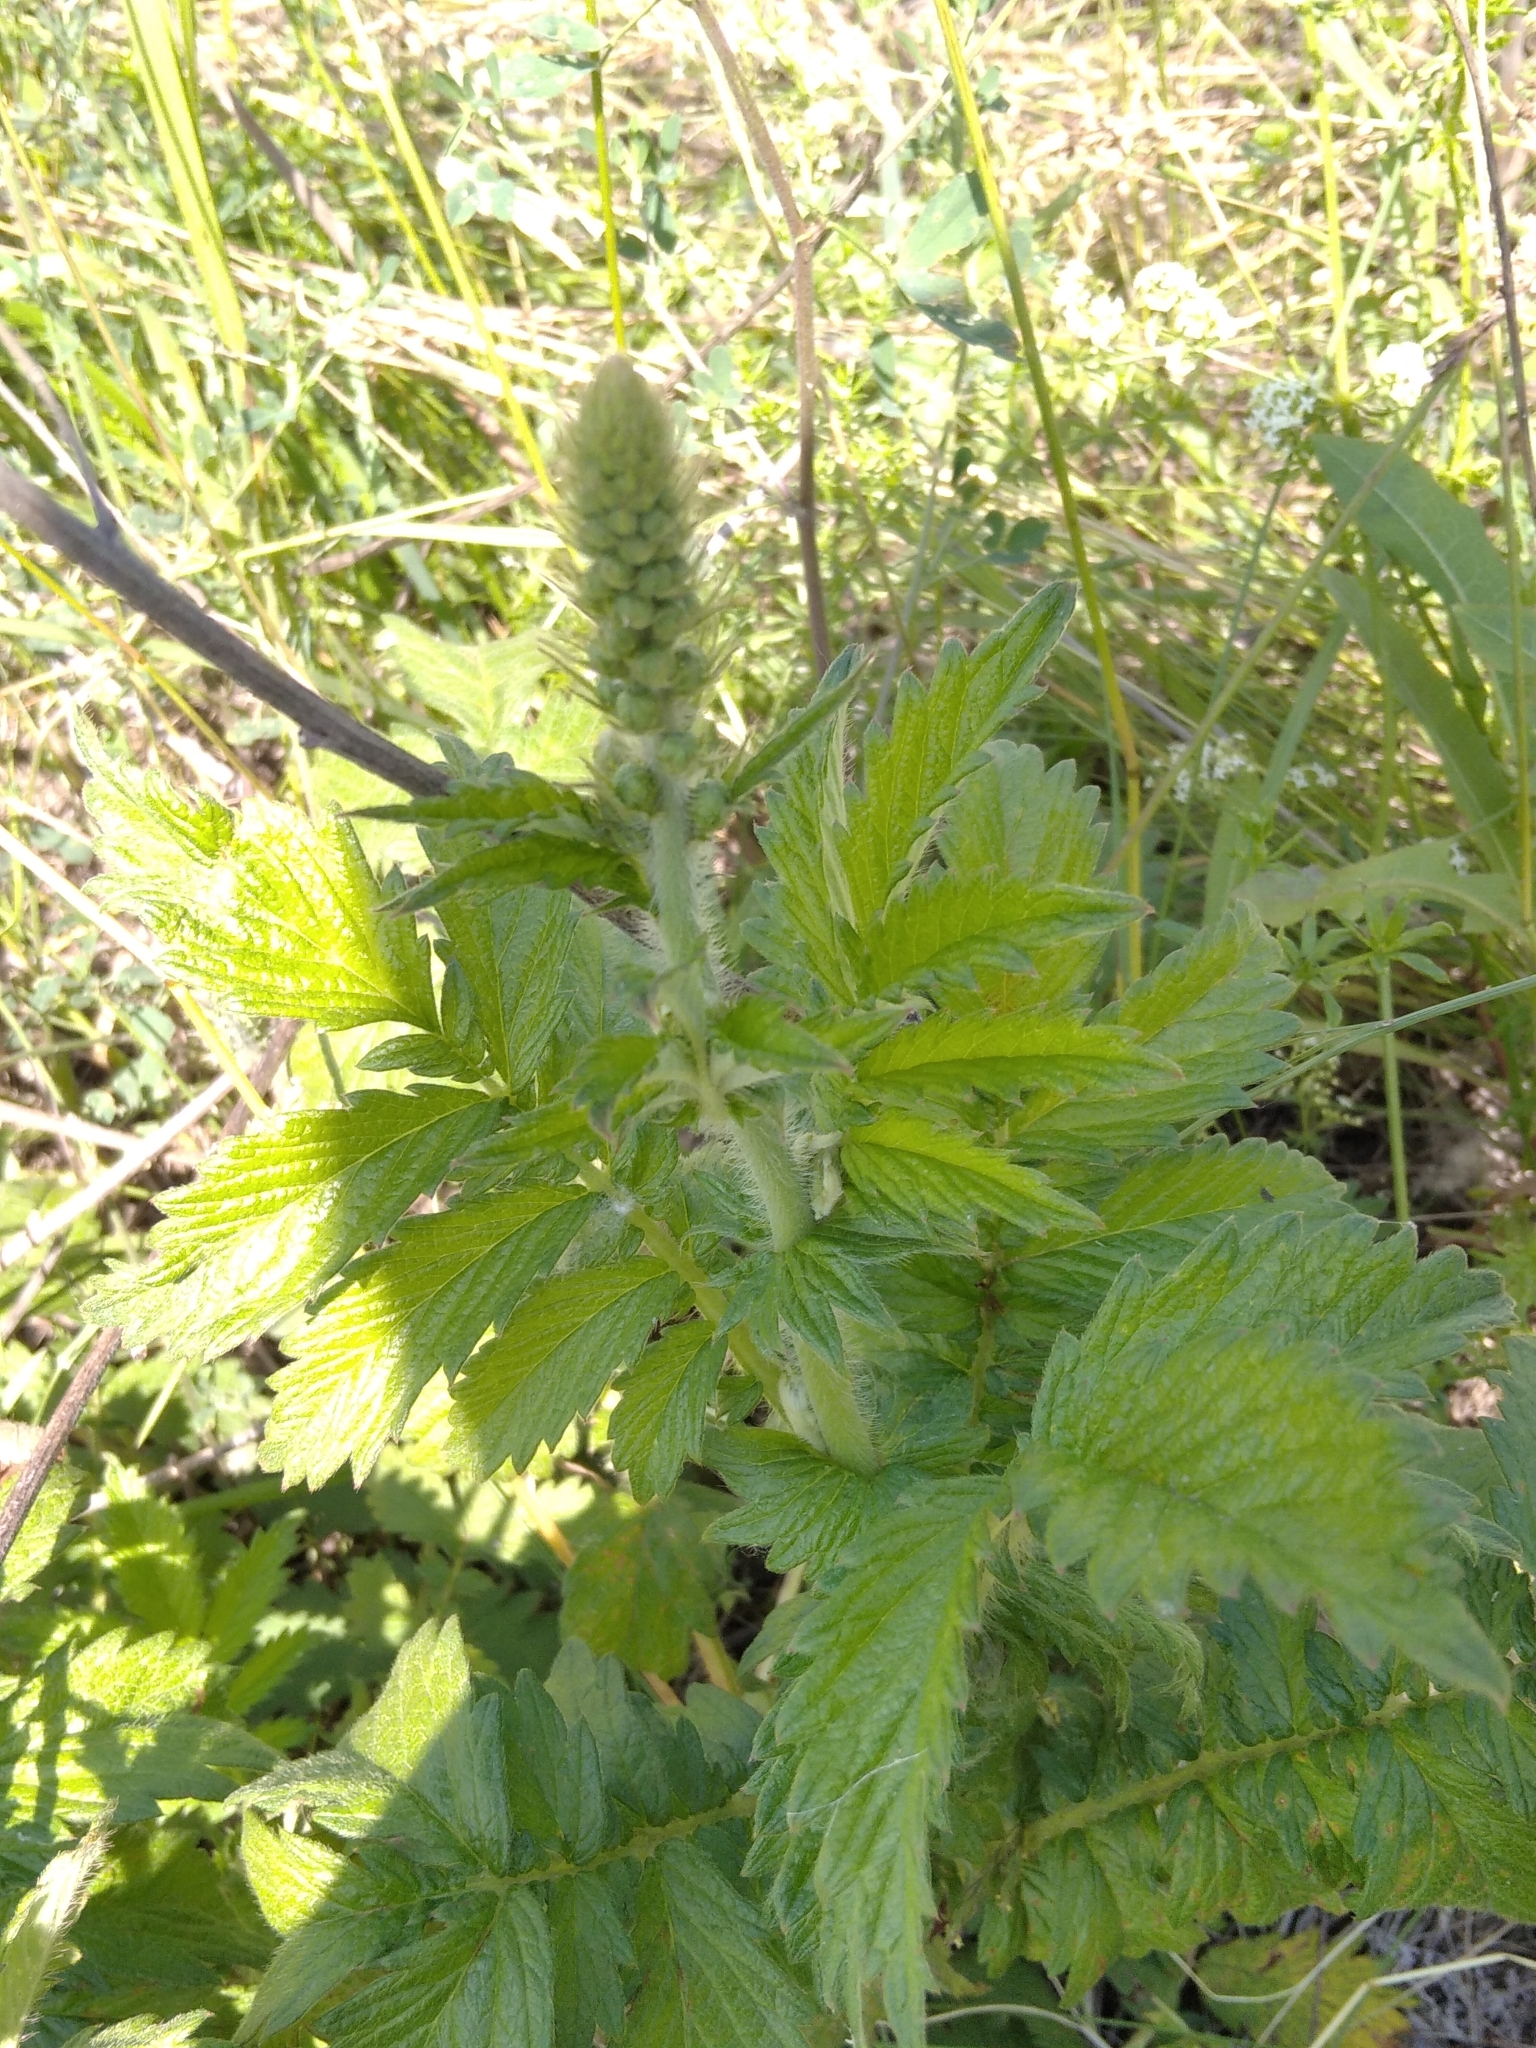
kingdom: Plantae
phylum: Tracheophyta
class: Magnoliopsida
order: Rosales
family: Rosaceae
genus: Agrimonia
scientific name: Agrimonia eupatoria
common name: Agrimony
